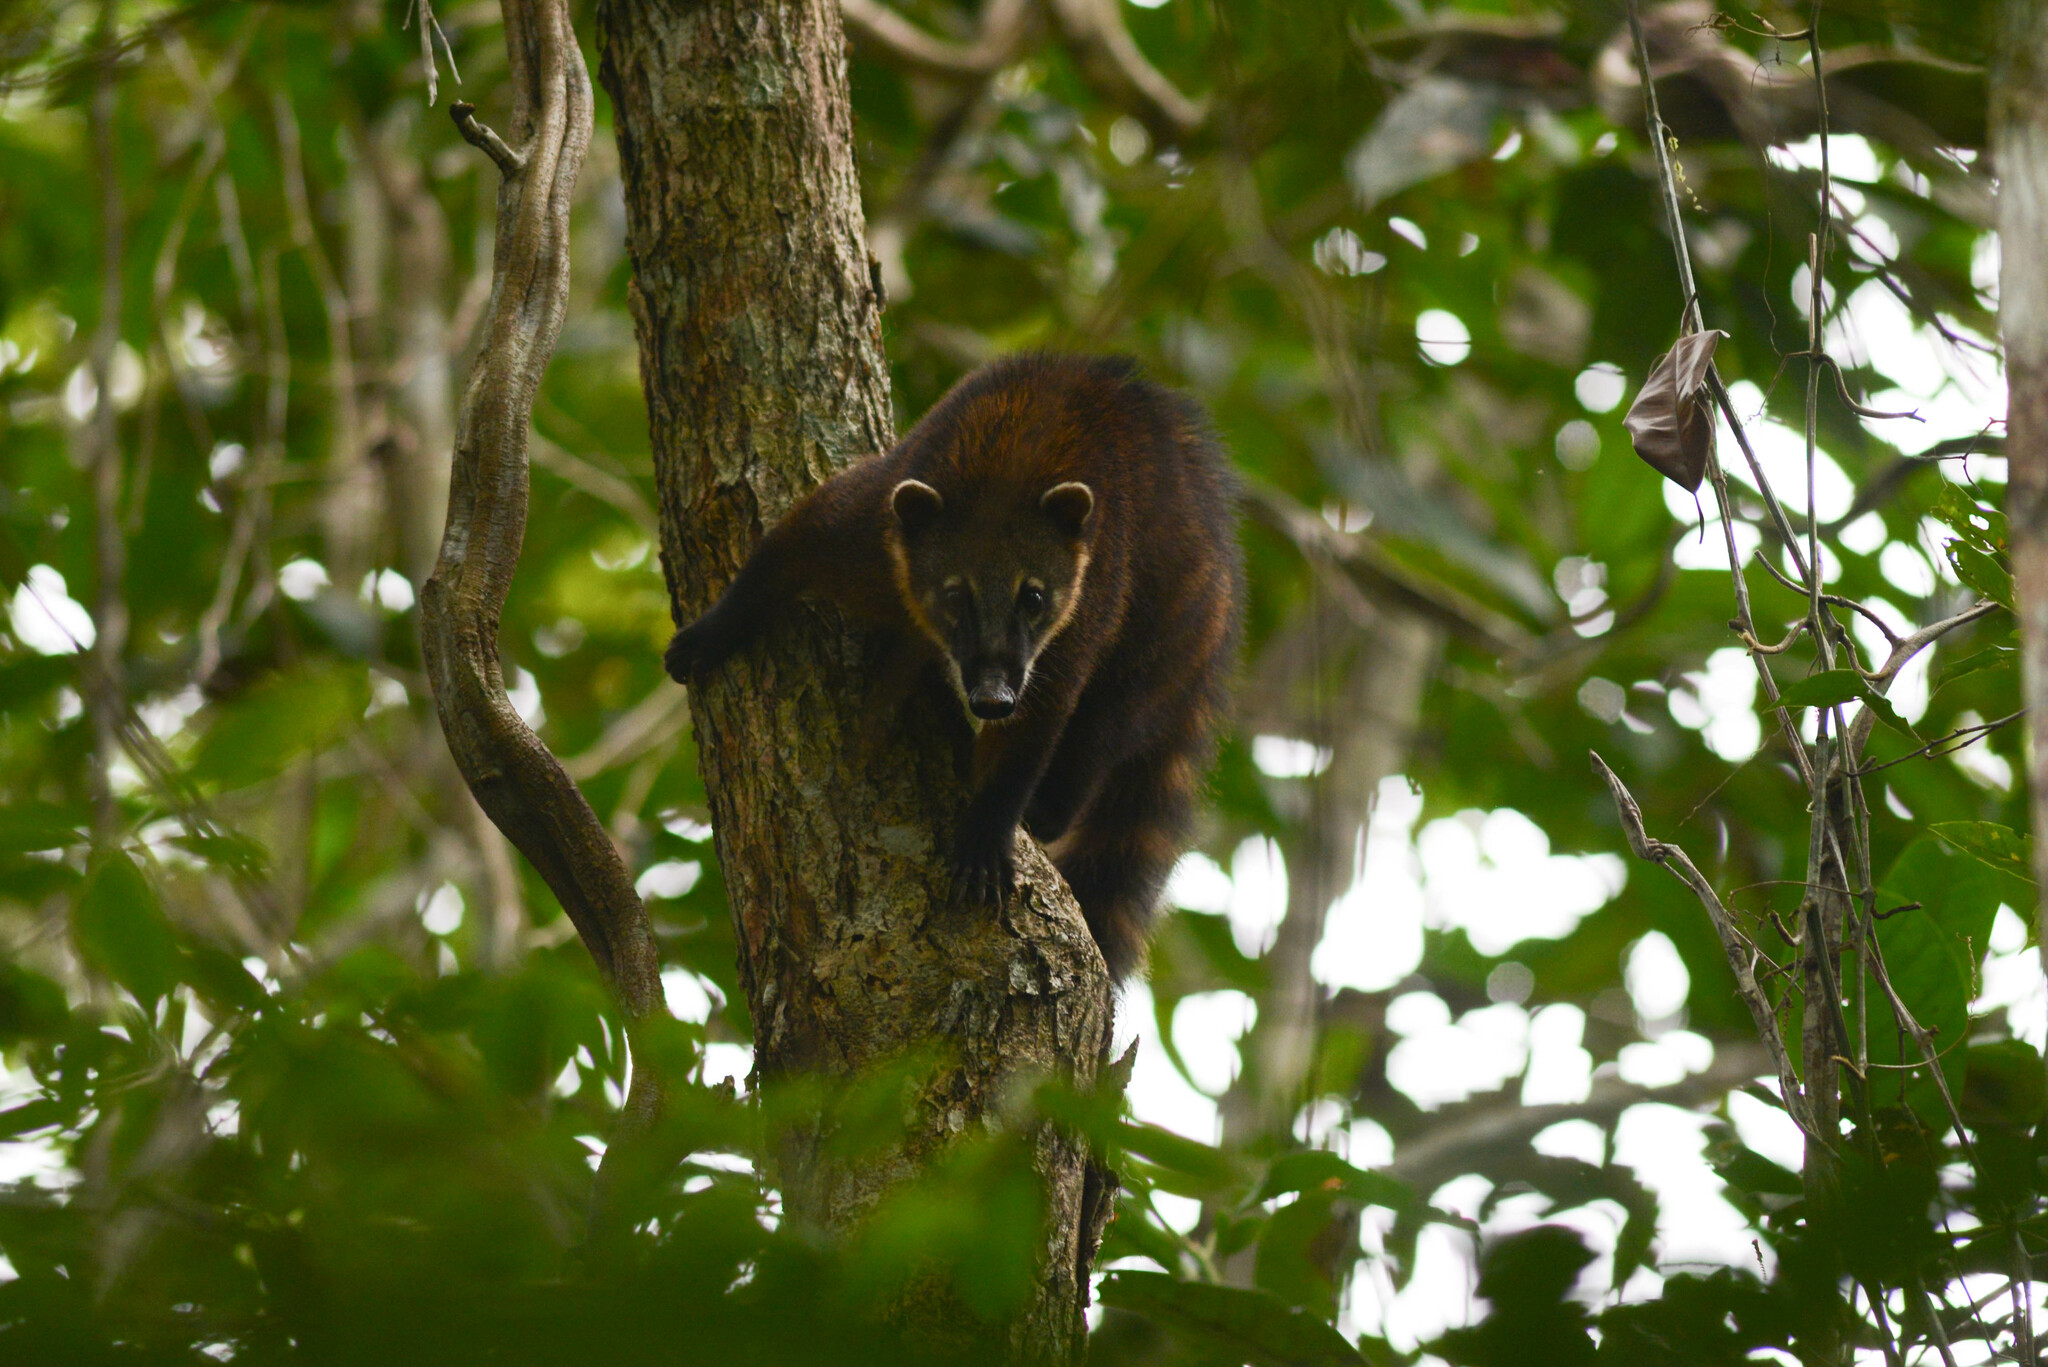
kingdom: Animalia
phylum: Chordata
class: Mammalia
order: Carnivora
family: Procyonidae
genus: Nasua
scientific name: Nasua nasua
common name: South american coati
